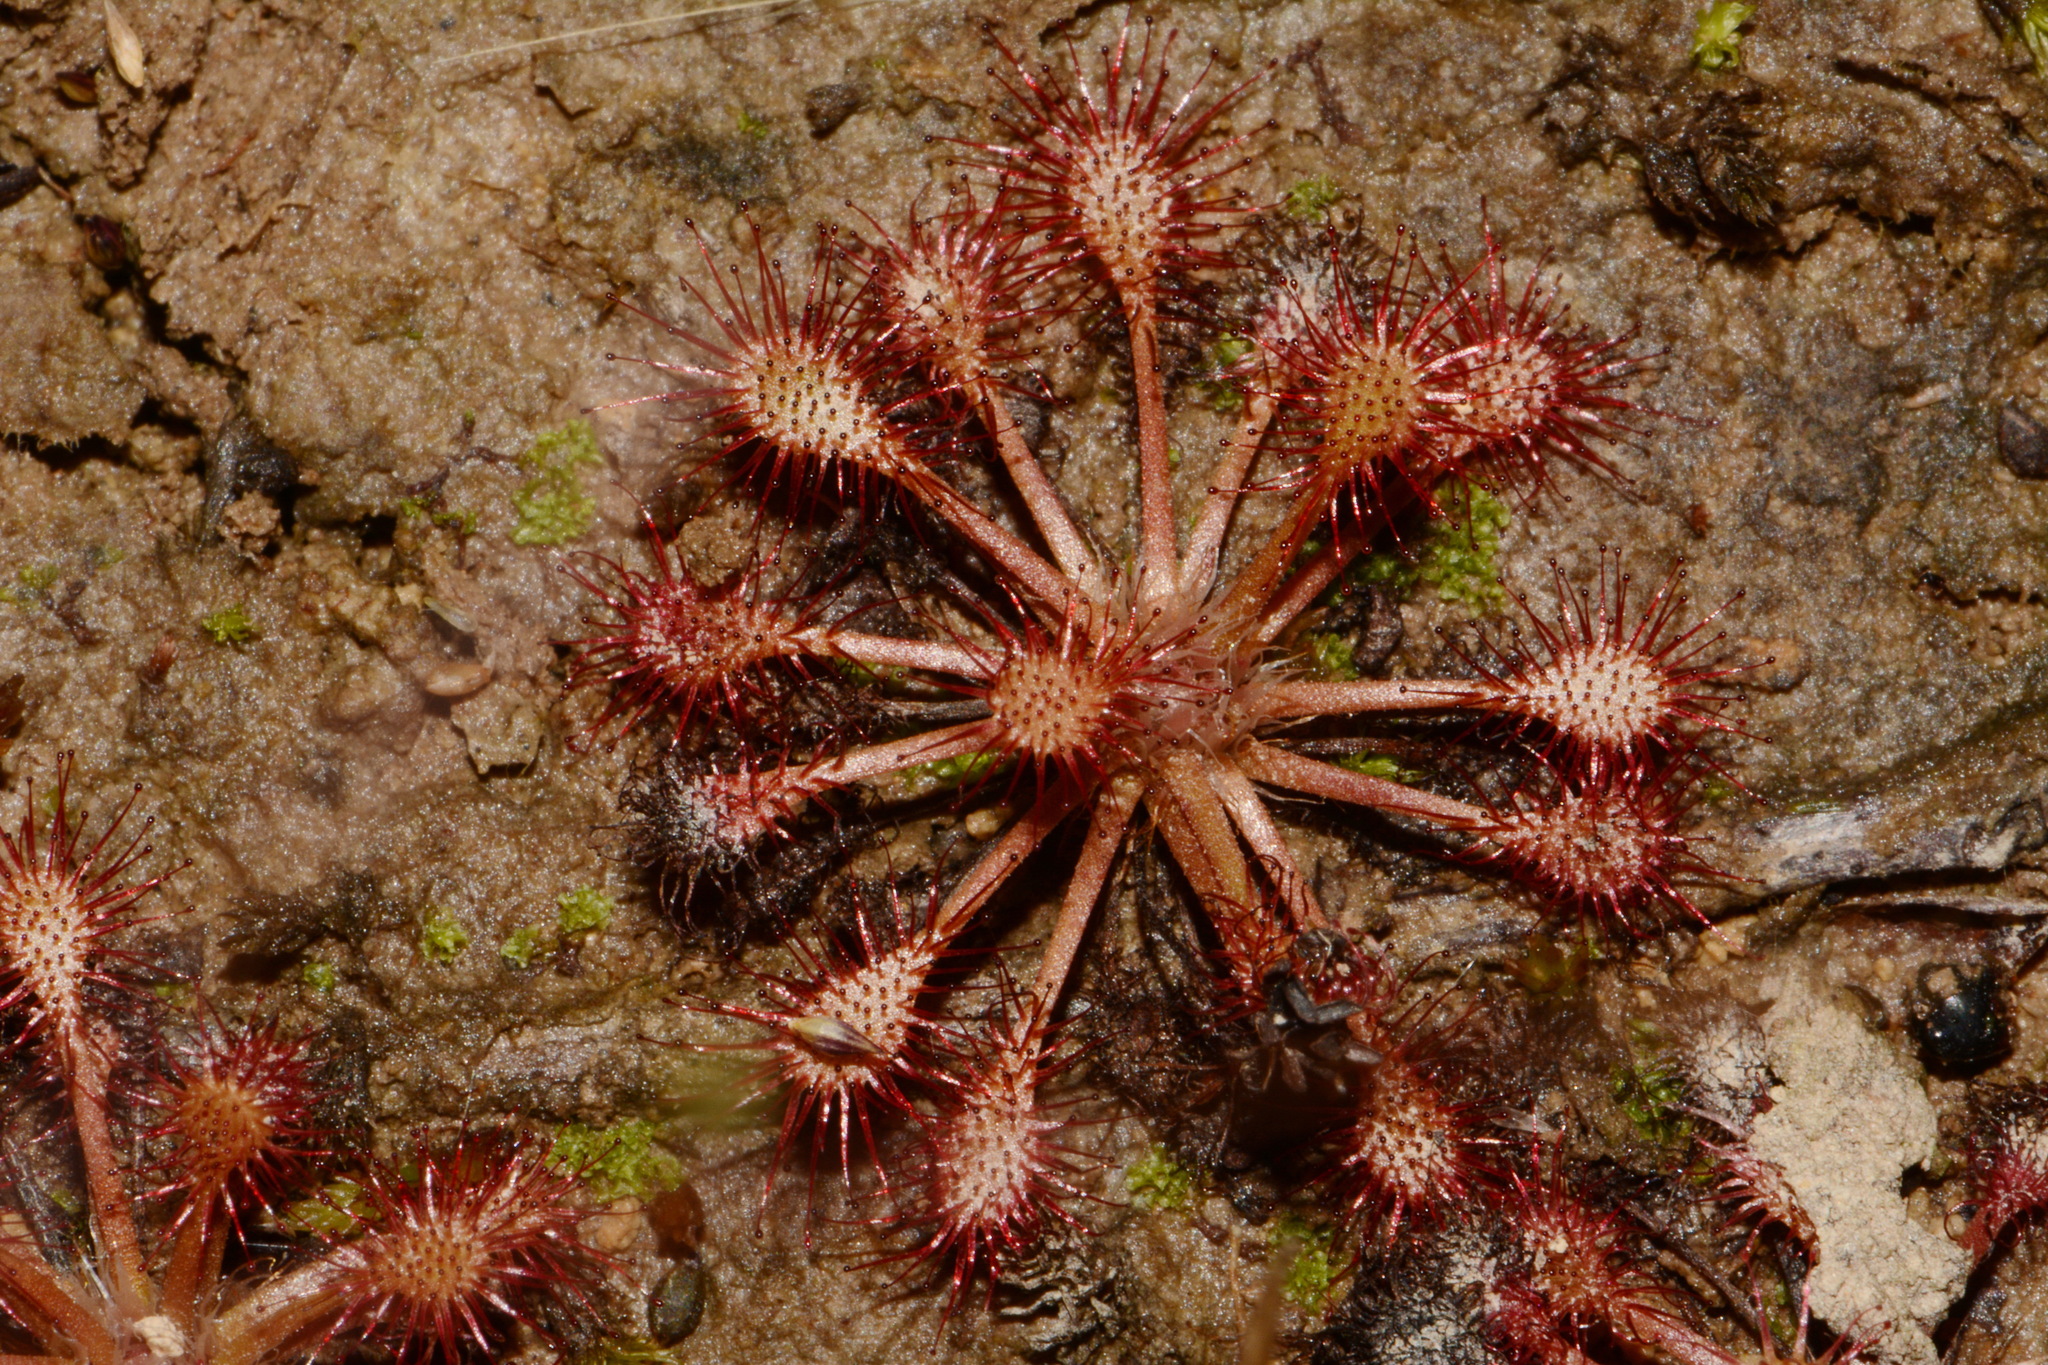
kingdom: Plantae
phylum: Tracheophyta
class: Magnoliopsida
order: Caryophyllales
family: Droseraceae
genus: Drosera
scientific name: Drosera intermedia
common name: Oblong-leaved sundew
